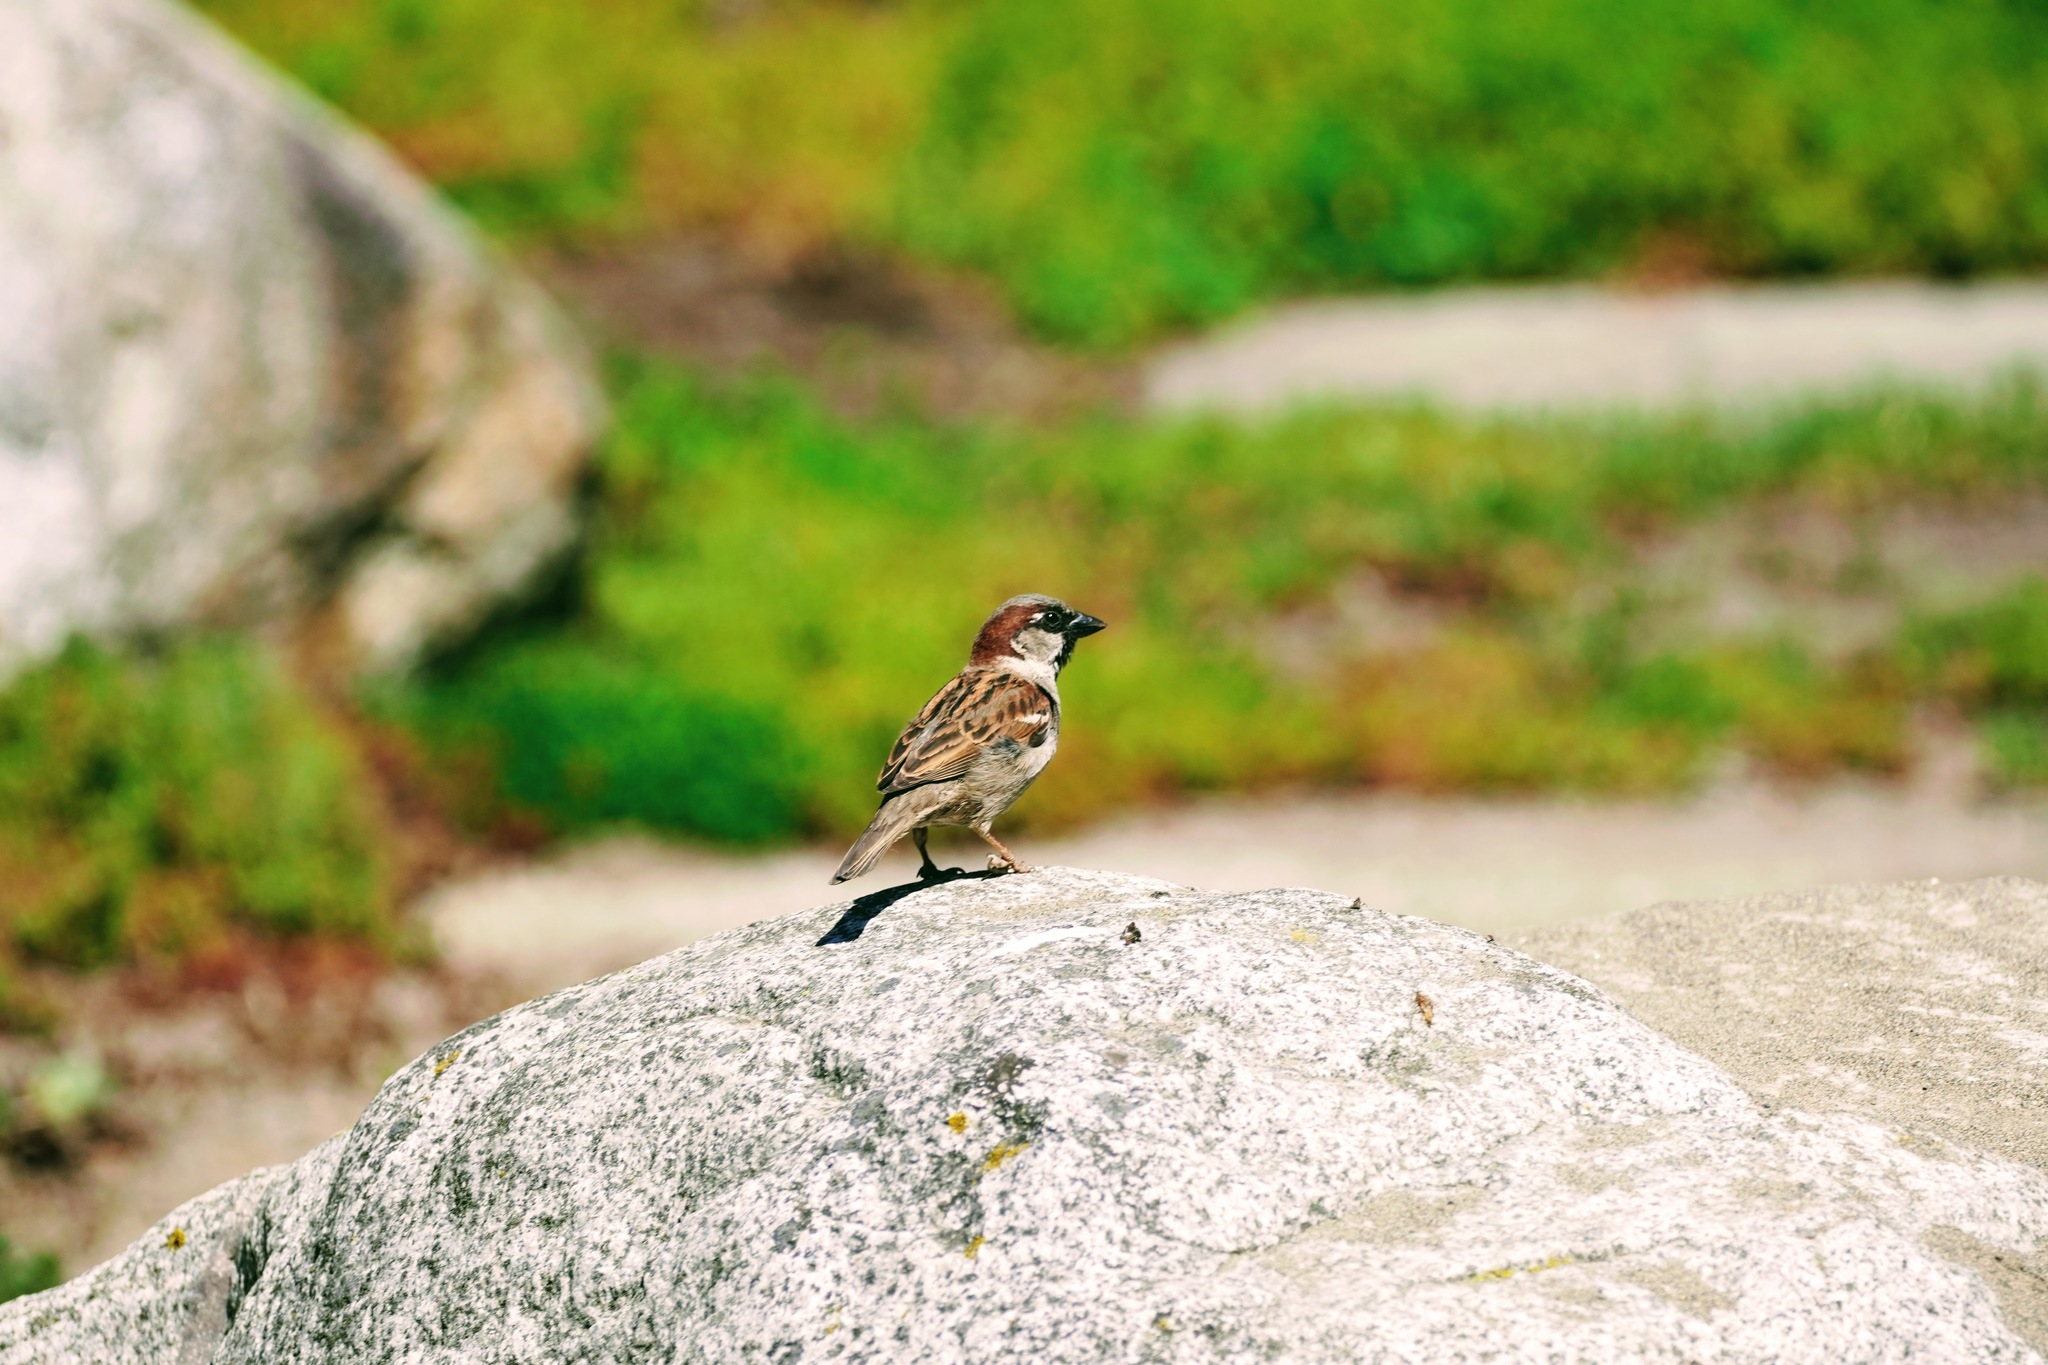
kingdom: Animalia
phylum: Chordata
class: Aves
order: Passeriformes
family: Passeridae
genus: Passer
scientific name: Passer domesticus
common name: House sparrow
